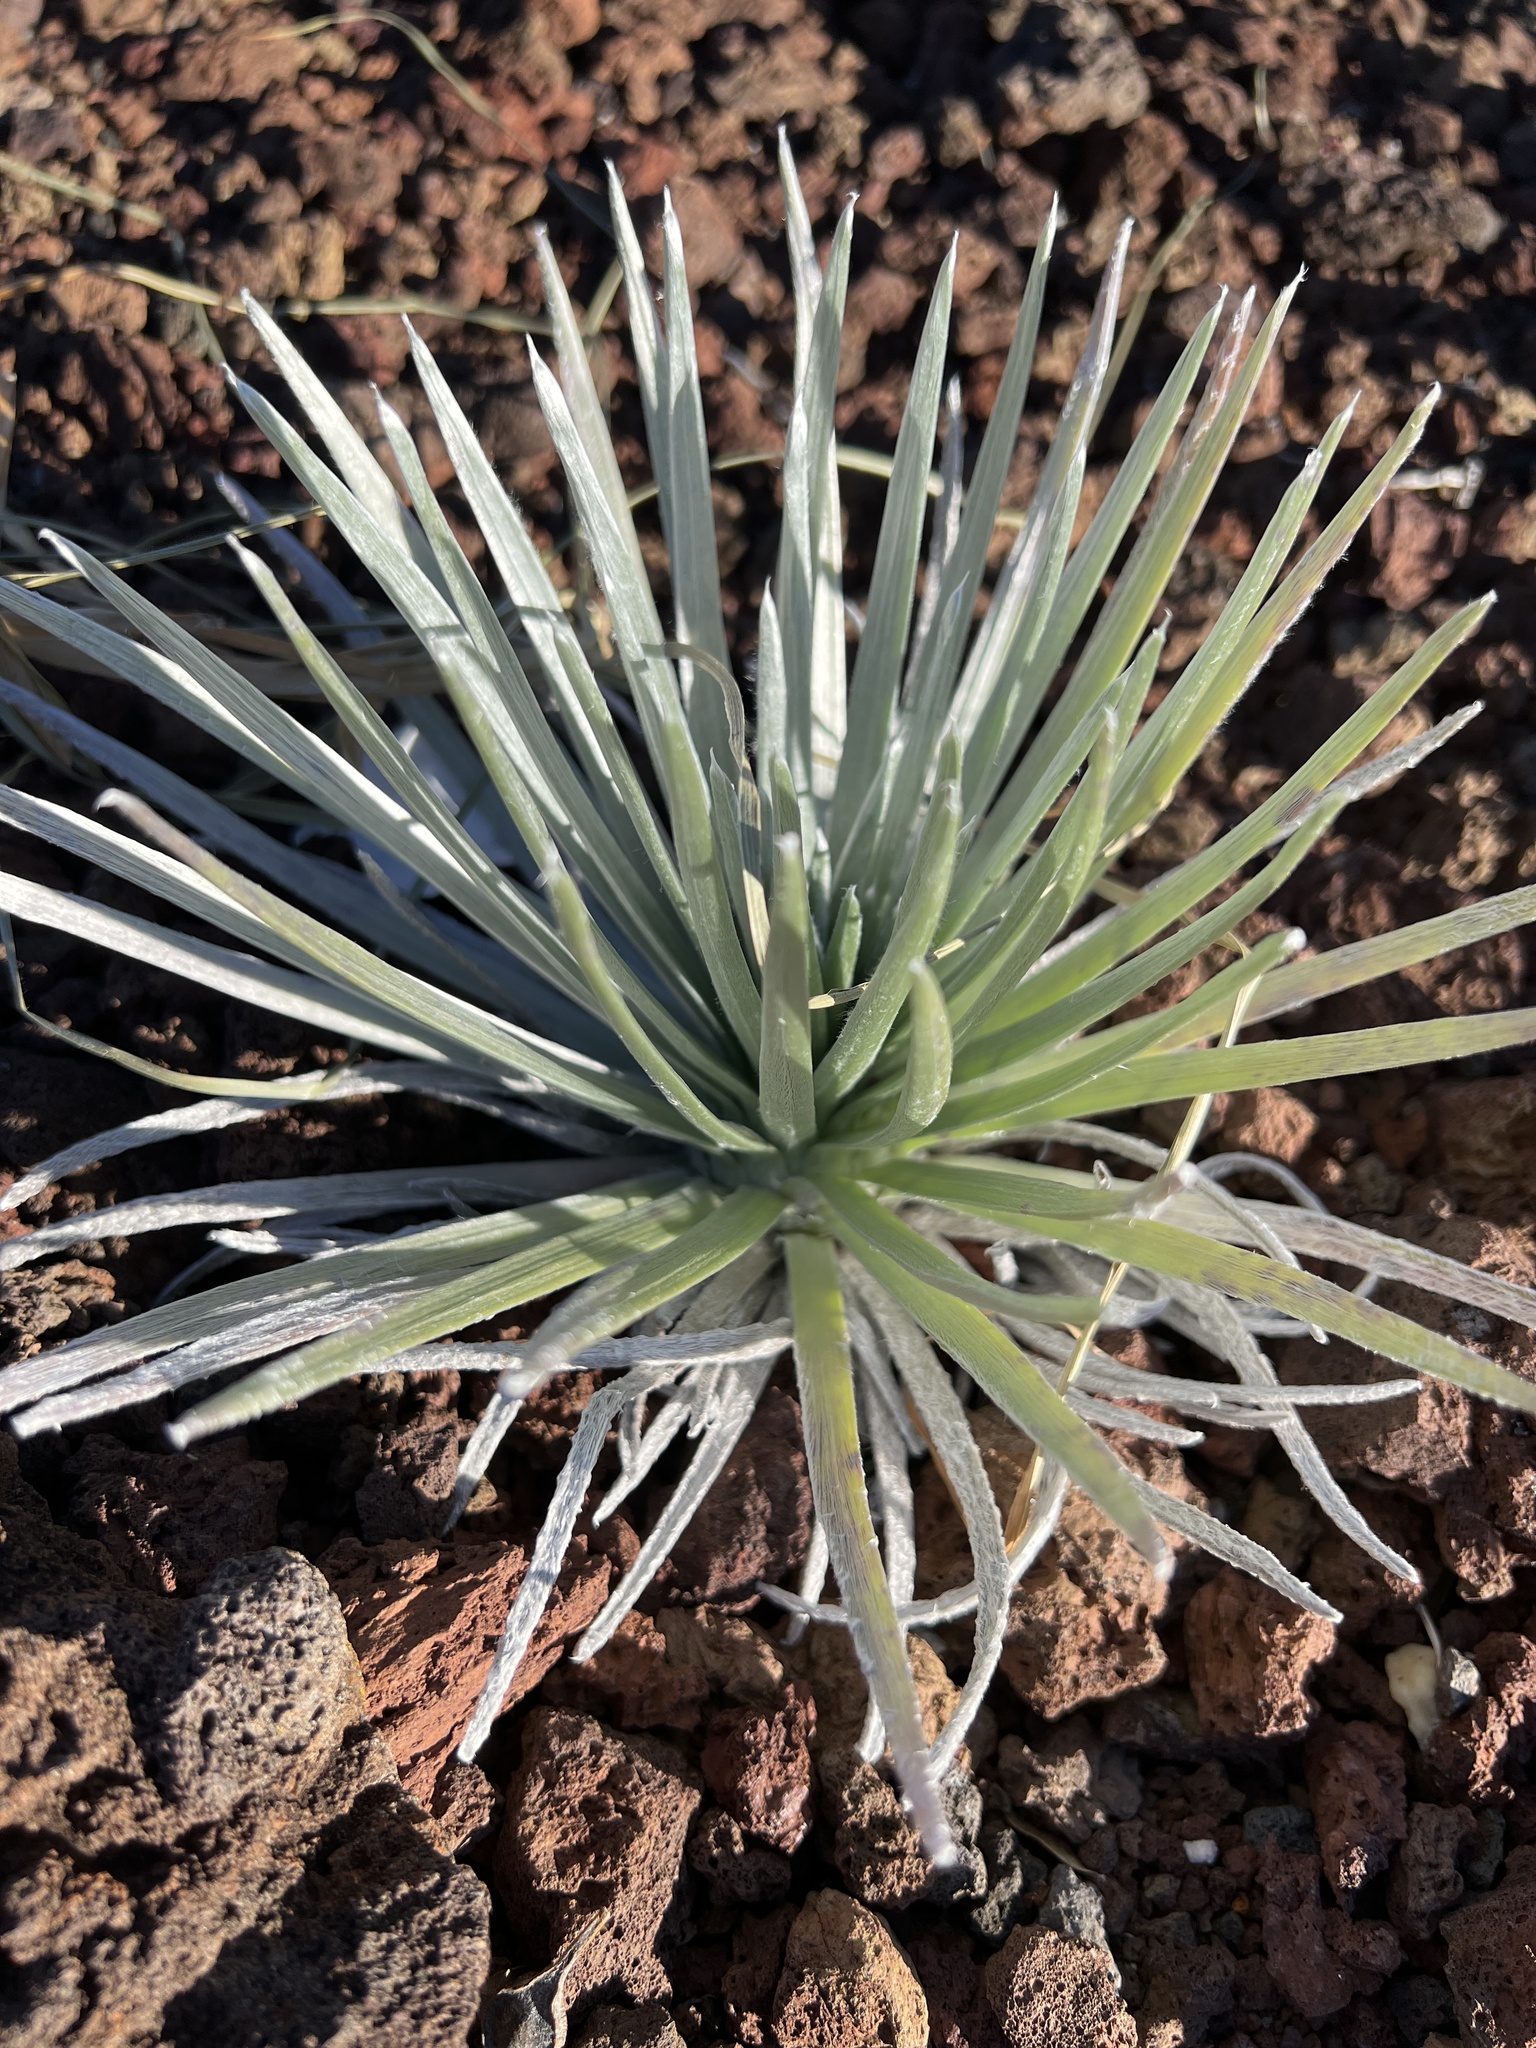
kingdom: Plantae
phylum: Tracheophyta
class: Magnoliopsida
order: Asterales
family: Asteraceae
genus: Argyroxiphium
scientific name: Argyroxiphium sandwicense
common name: Silversword
